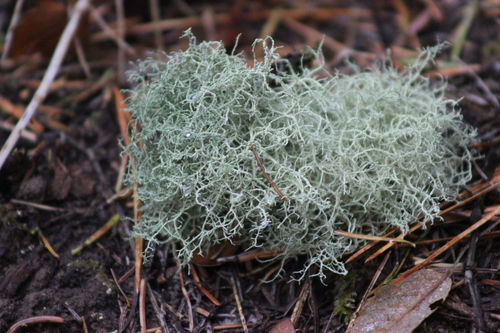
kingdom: Fungi
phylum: Ascomycota
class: Lecanoromycetes
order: Lecanorales
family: Parmeliaceae
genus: Usnea
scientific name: Usnea
